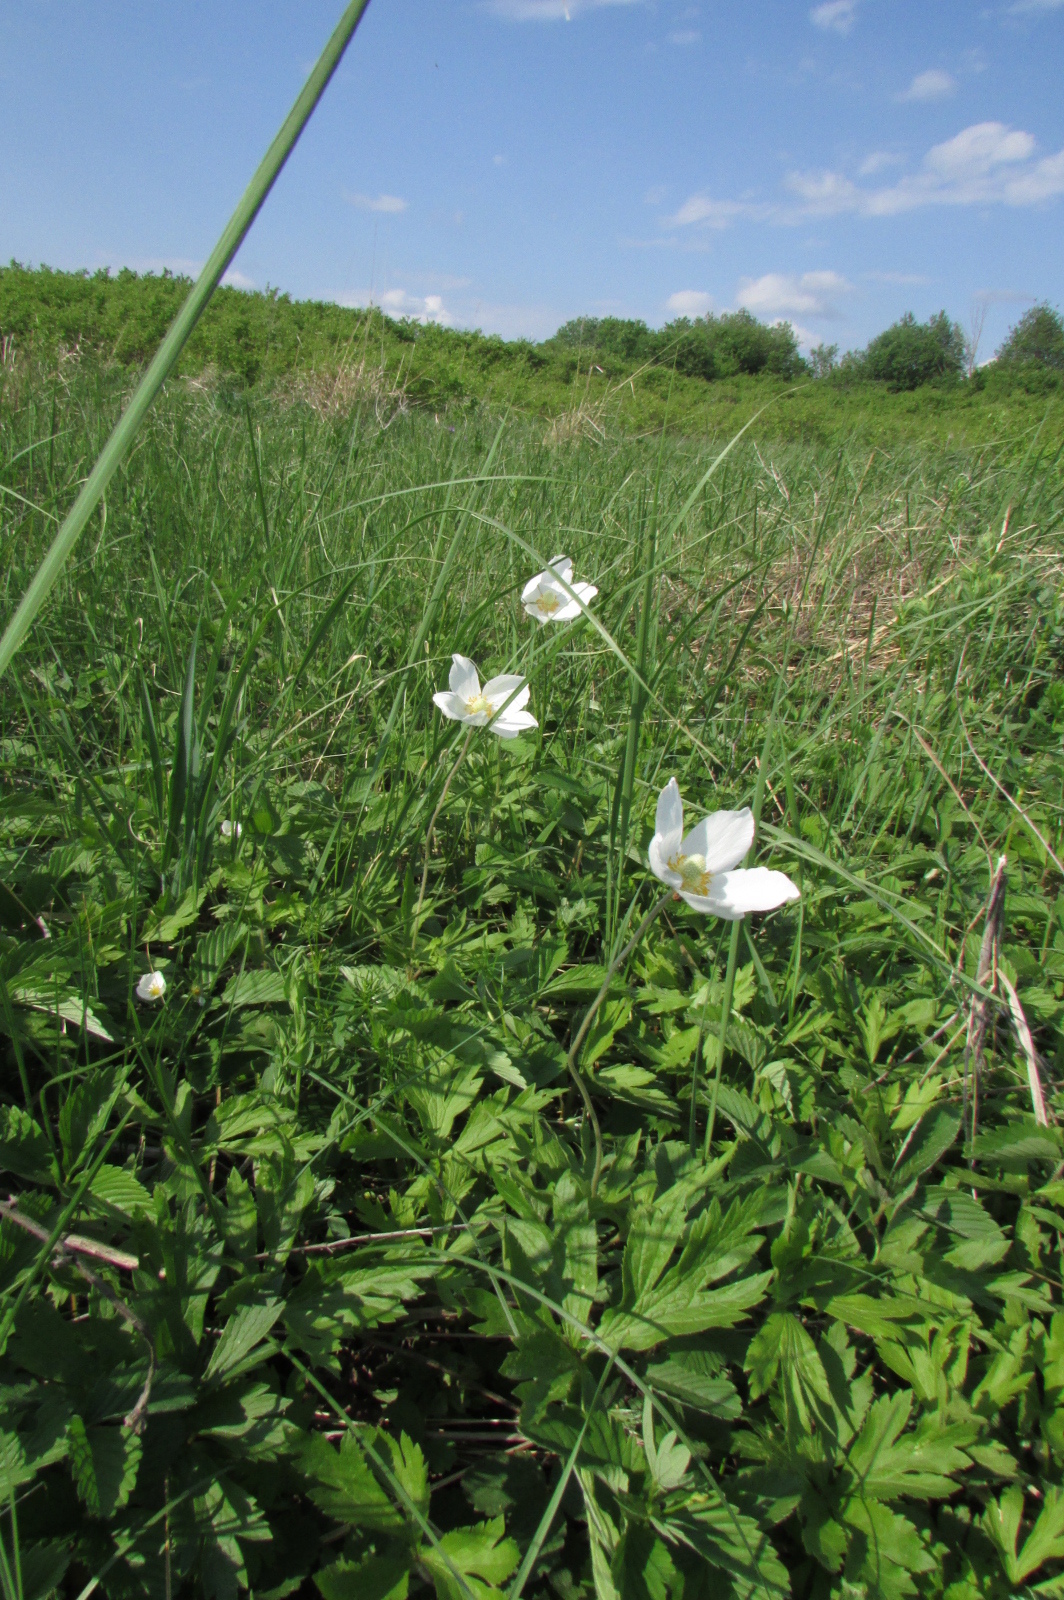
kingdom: Plantae
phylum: Tracheophyta
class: Magnoliopsida
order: Ranunculales
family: Ranunculaceae
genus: Anemone
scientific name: Anemone sylvestris
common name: Snowdrop anemone
